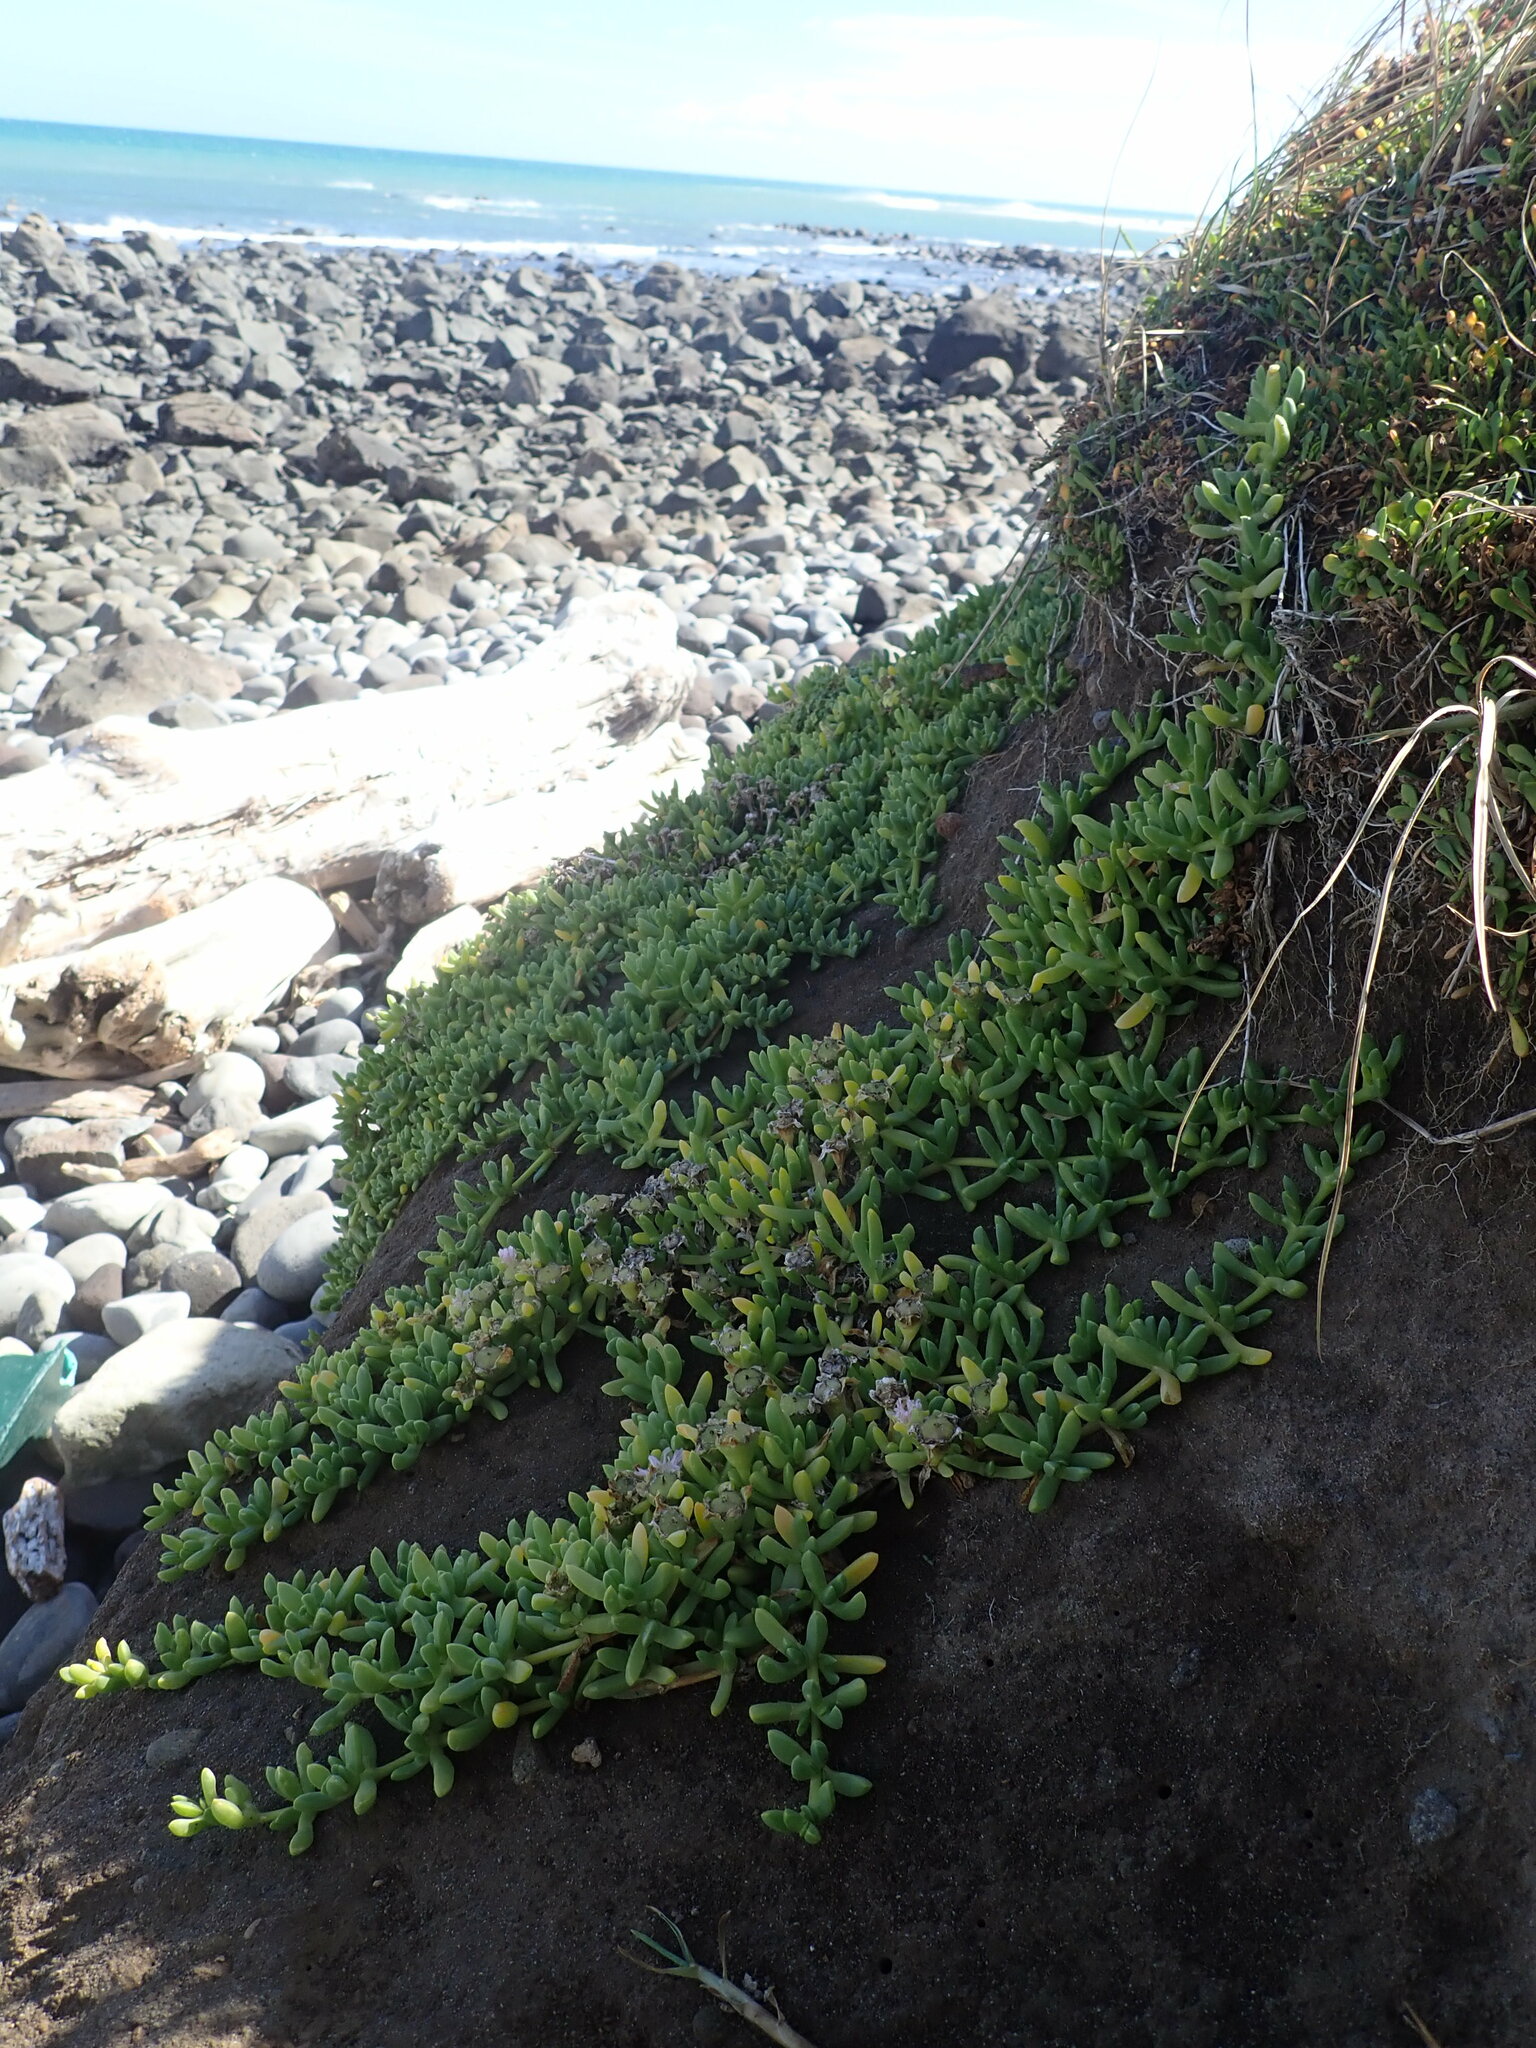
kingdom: Plantae
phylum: Tracheophyta
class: Magnoliopsida
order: Caryophyllales
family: Aizoaceae
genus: Disphyma
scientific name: Disphyma australe
